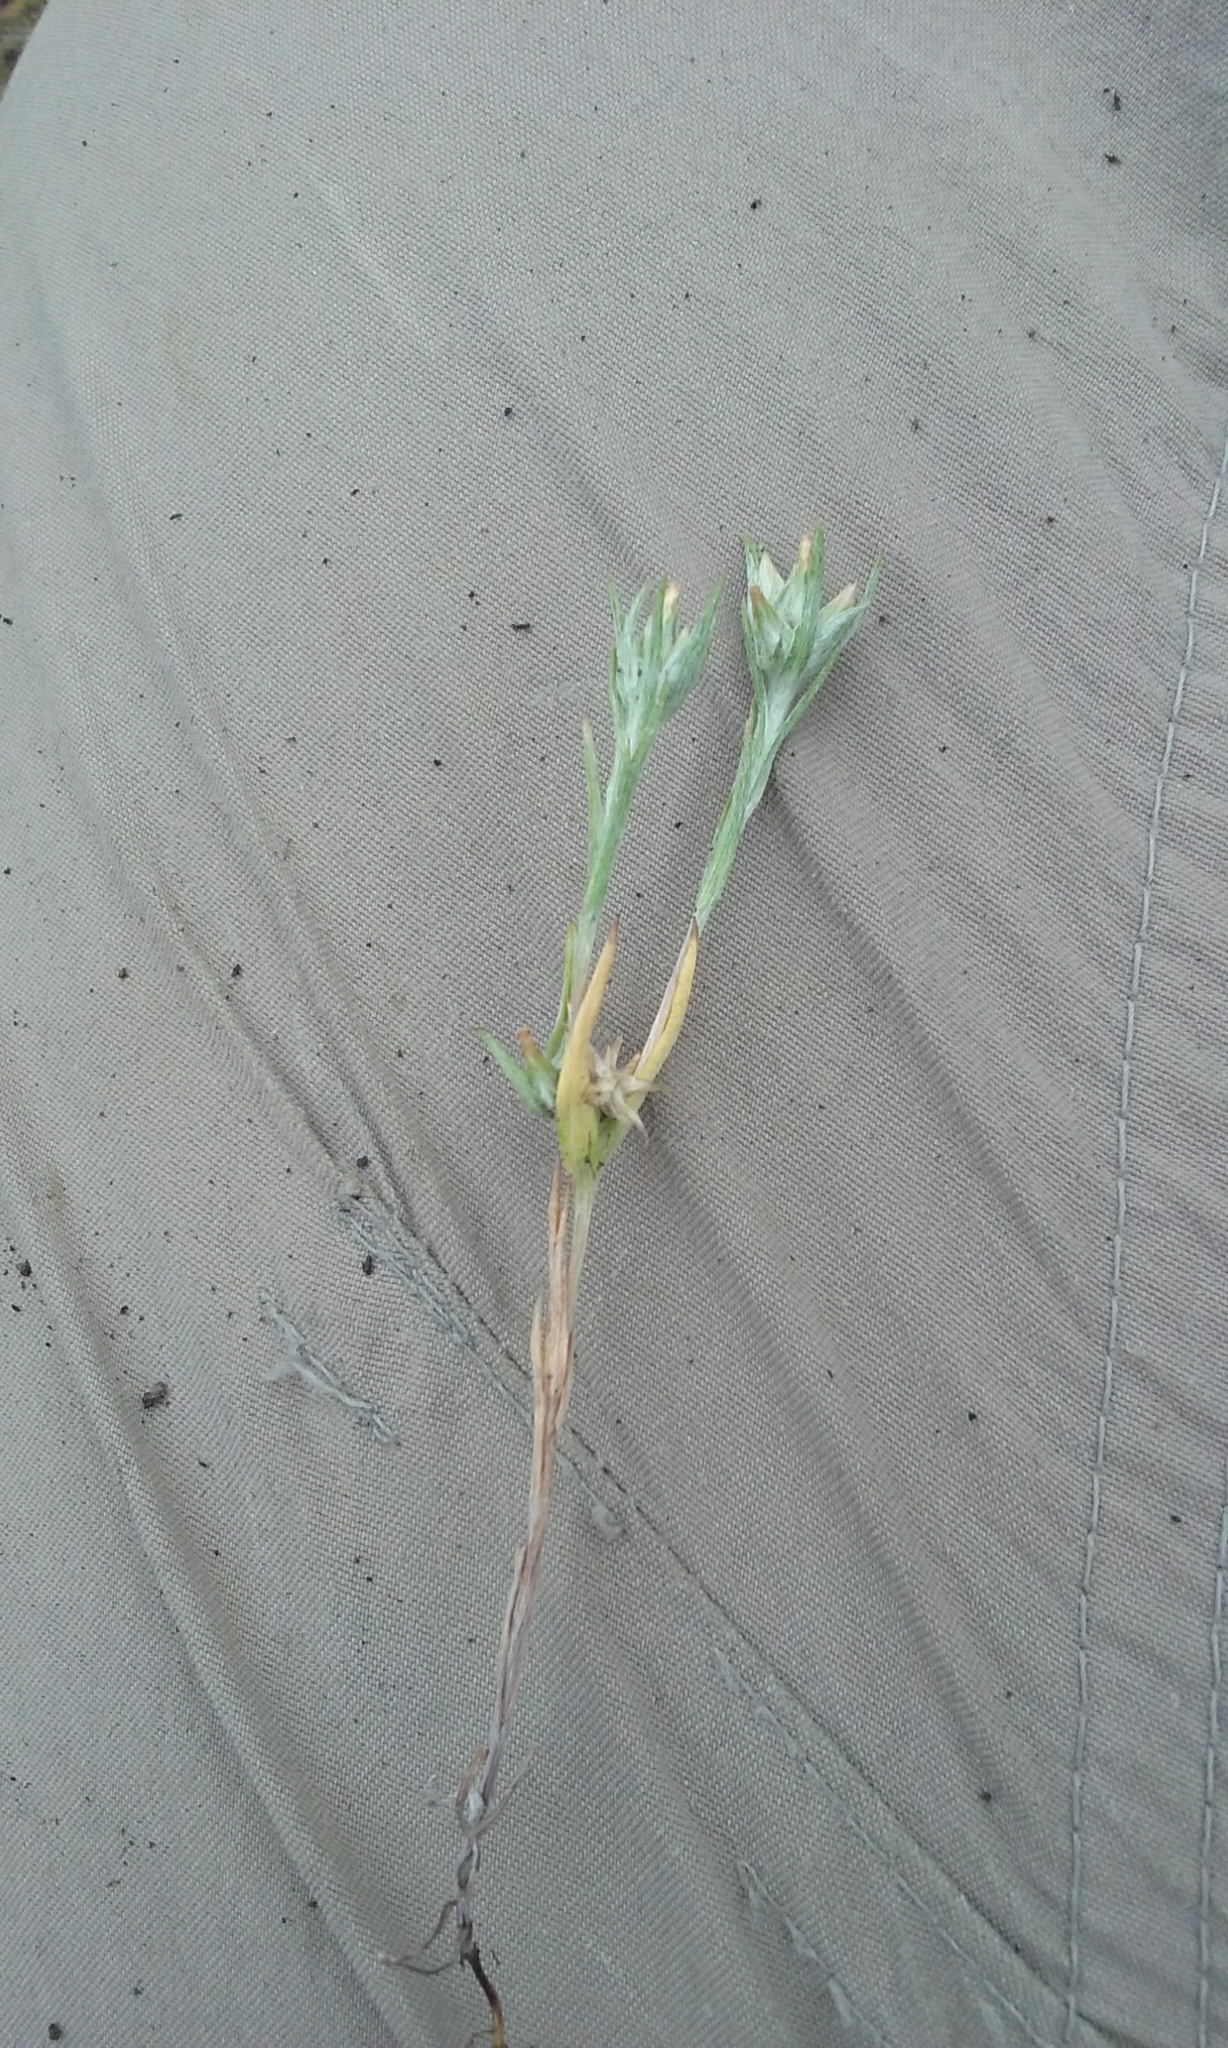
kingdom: Plantae
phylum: Tracheophyta
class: Magnoliopsida
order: Asterales
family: Asteraceae
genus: Logfia
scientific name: Logfia gallica
